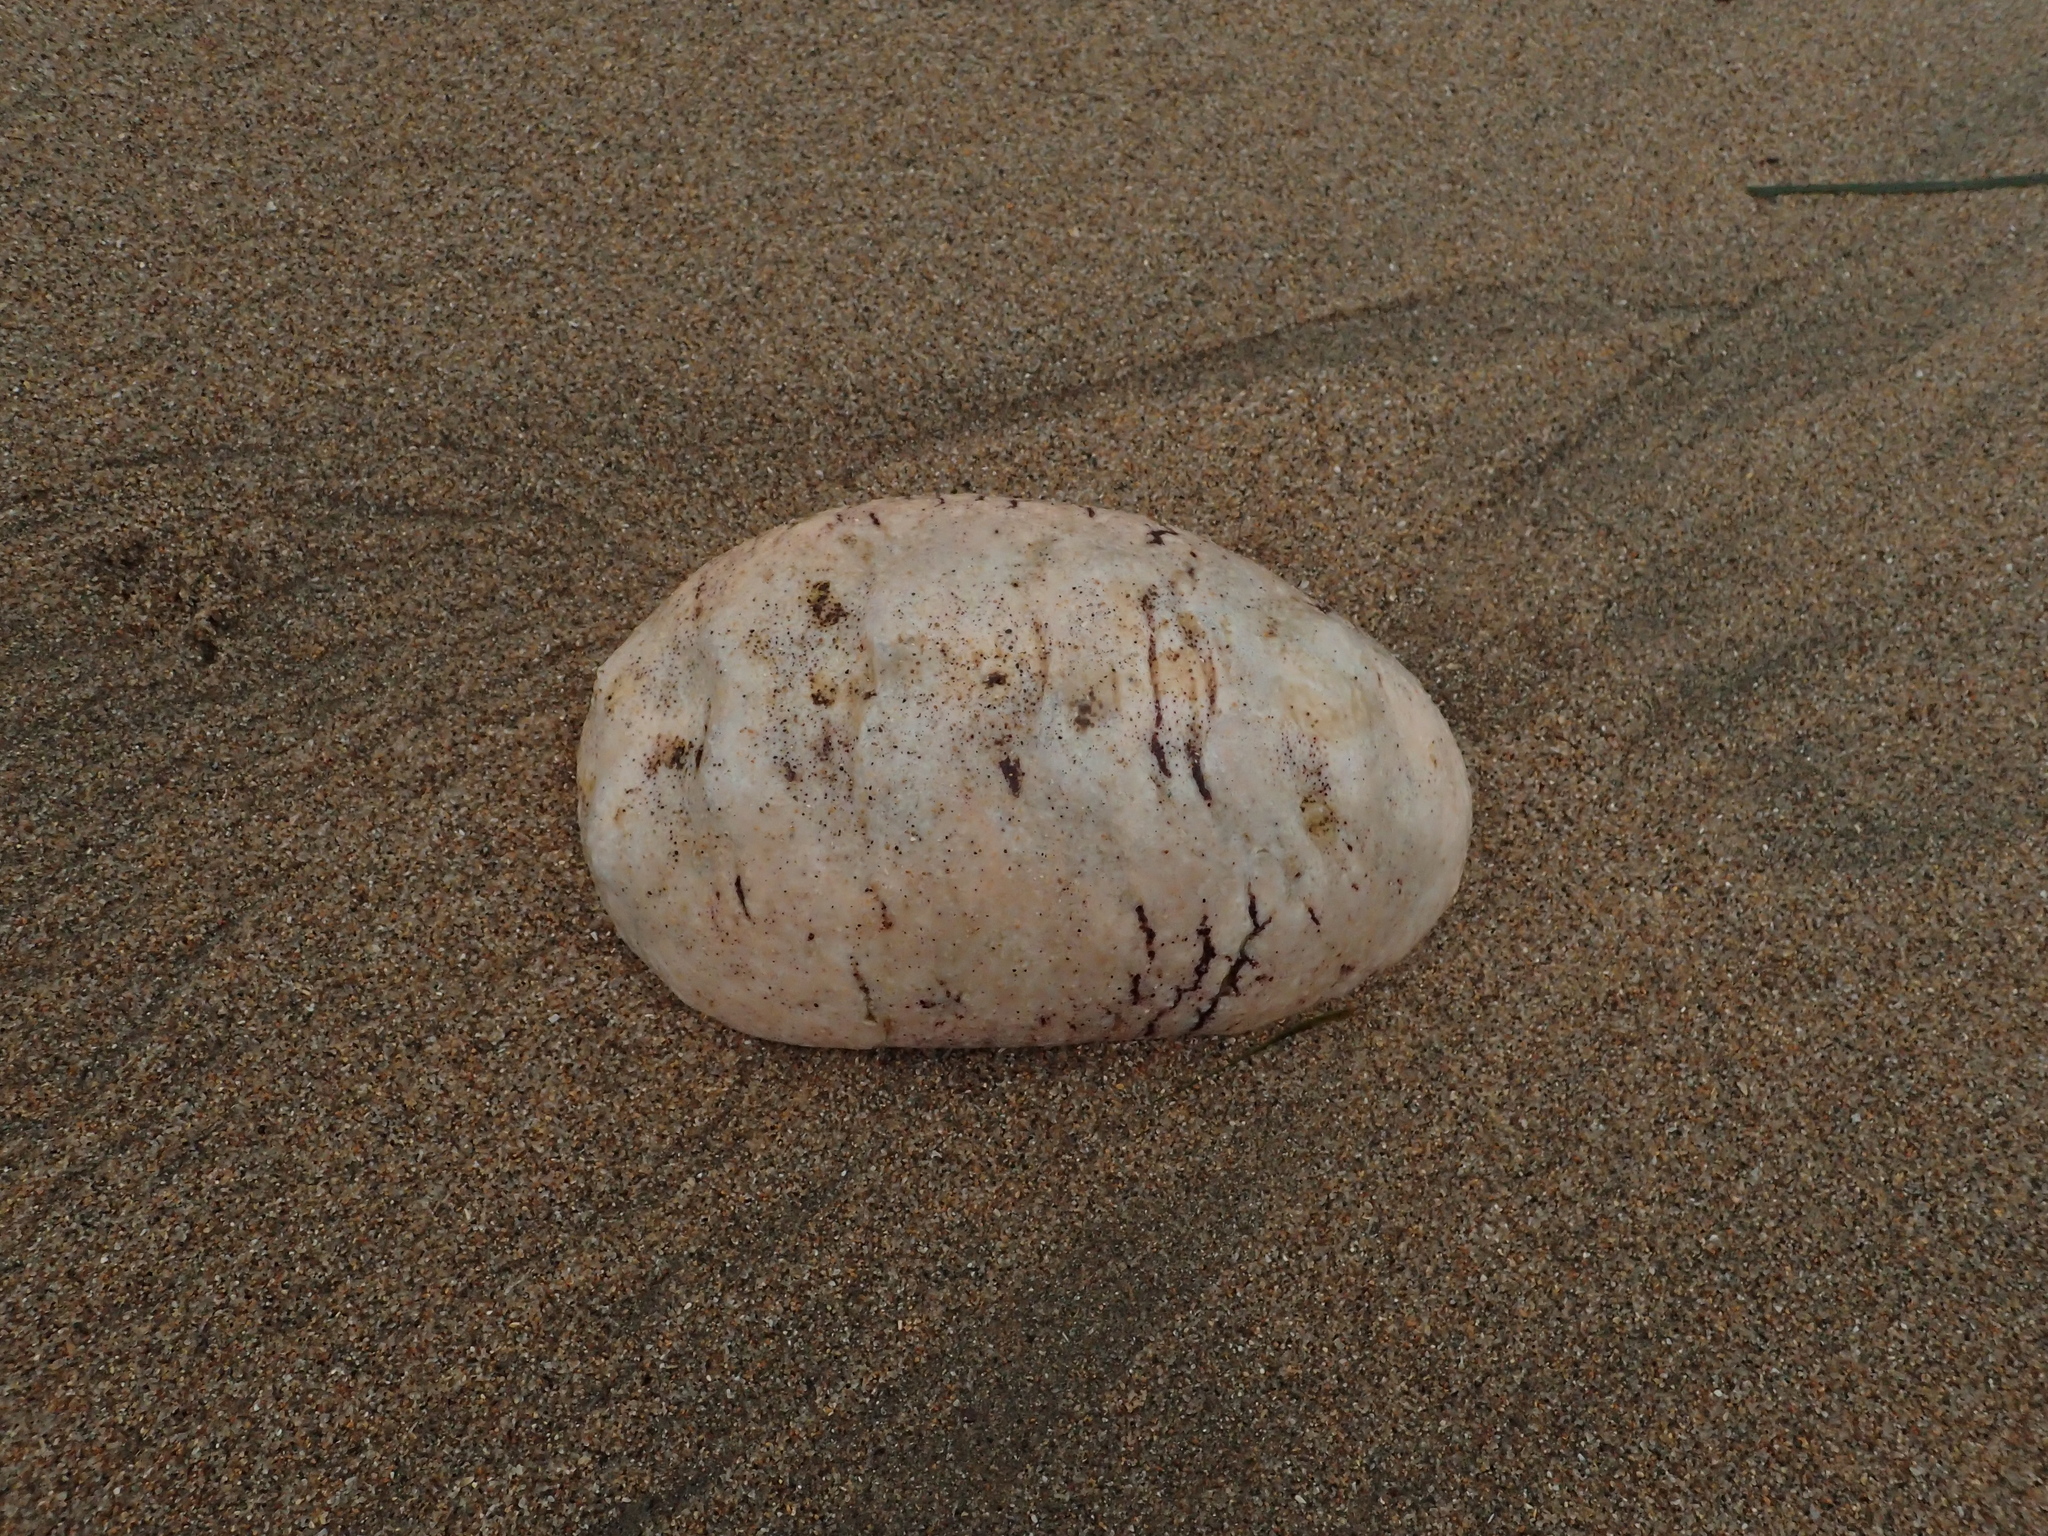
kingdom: Animalia
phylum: Mollusca
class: Polyplacophora
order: Chitonida
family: Acanthochitonidae
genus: Cryptochiton
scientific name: Cryptochiton stelleri
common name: Giant pacific chiton
